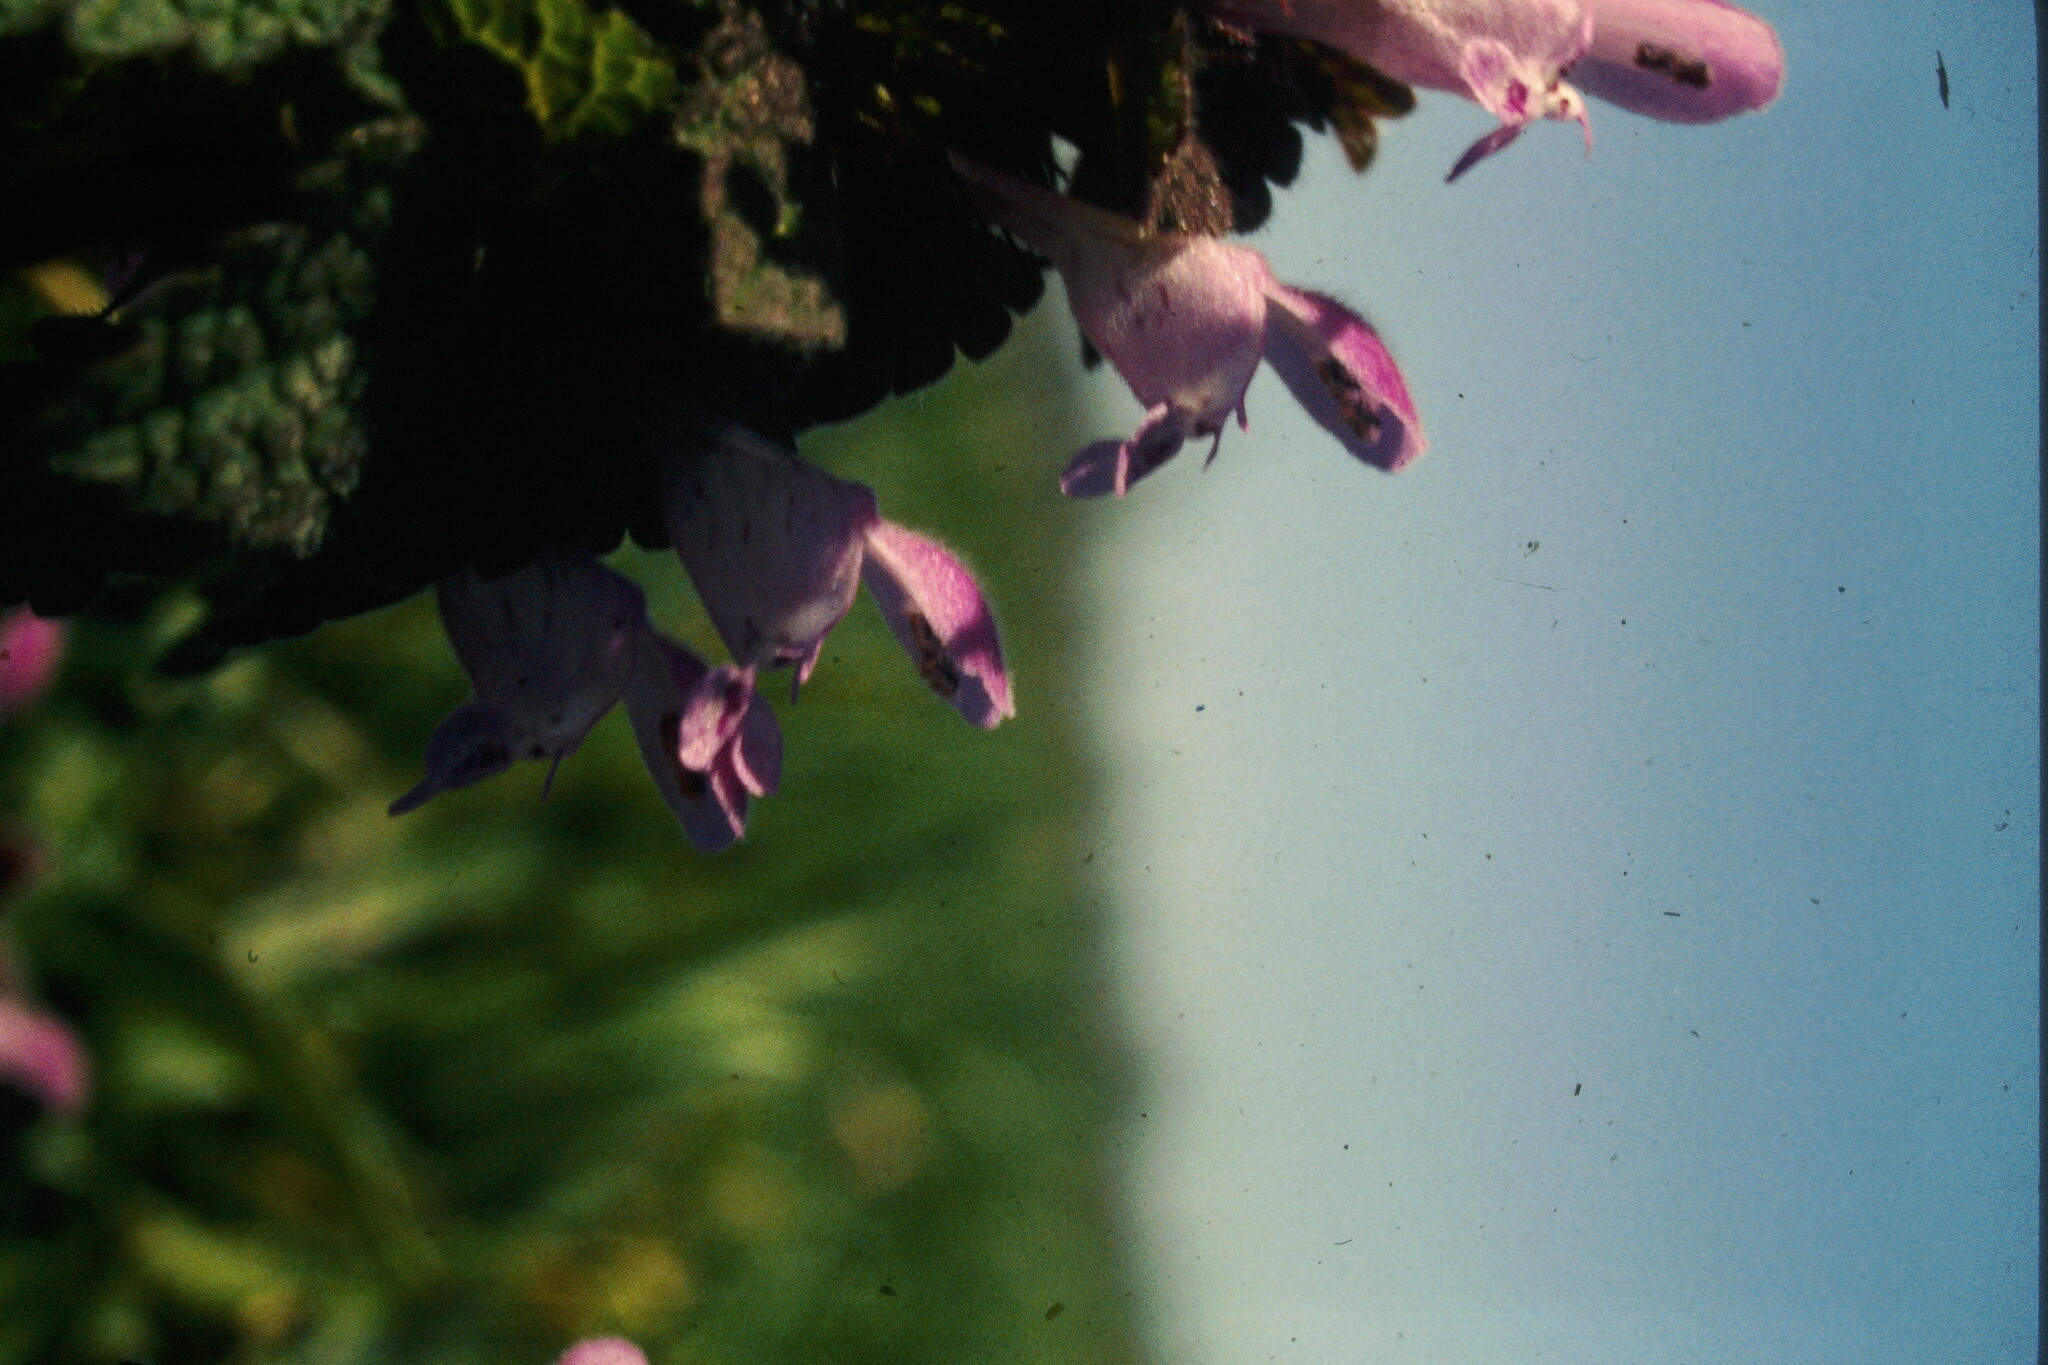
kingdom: Plantae
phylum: Tracheophyta
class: Magnoliopsida
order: Lamiales
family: Lamiaceae
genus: Lamium
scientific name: Lamium purpureum
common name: Red dead-nettle
